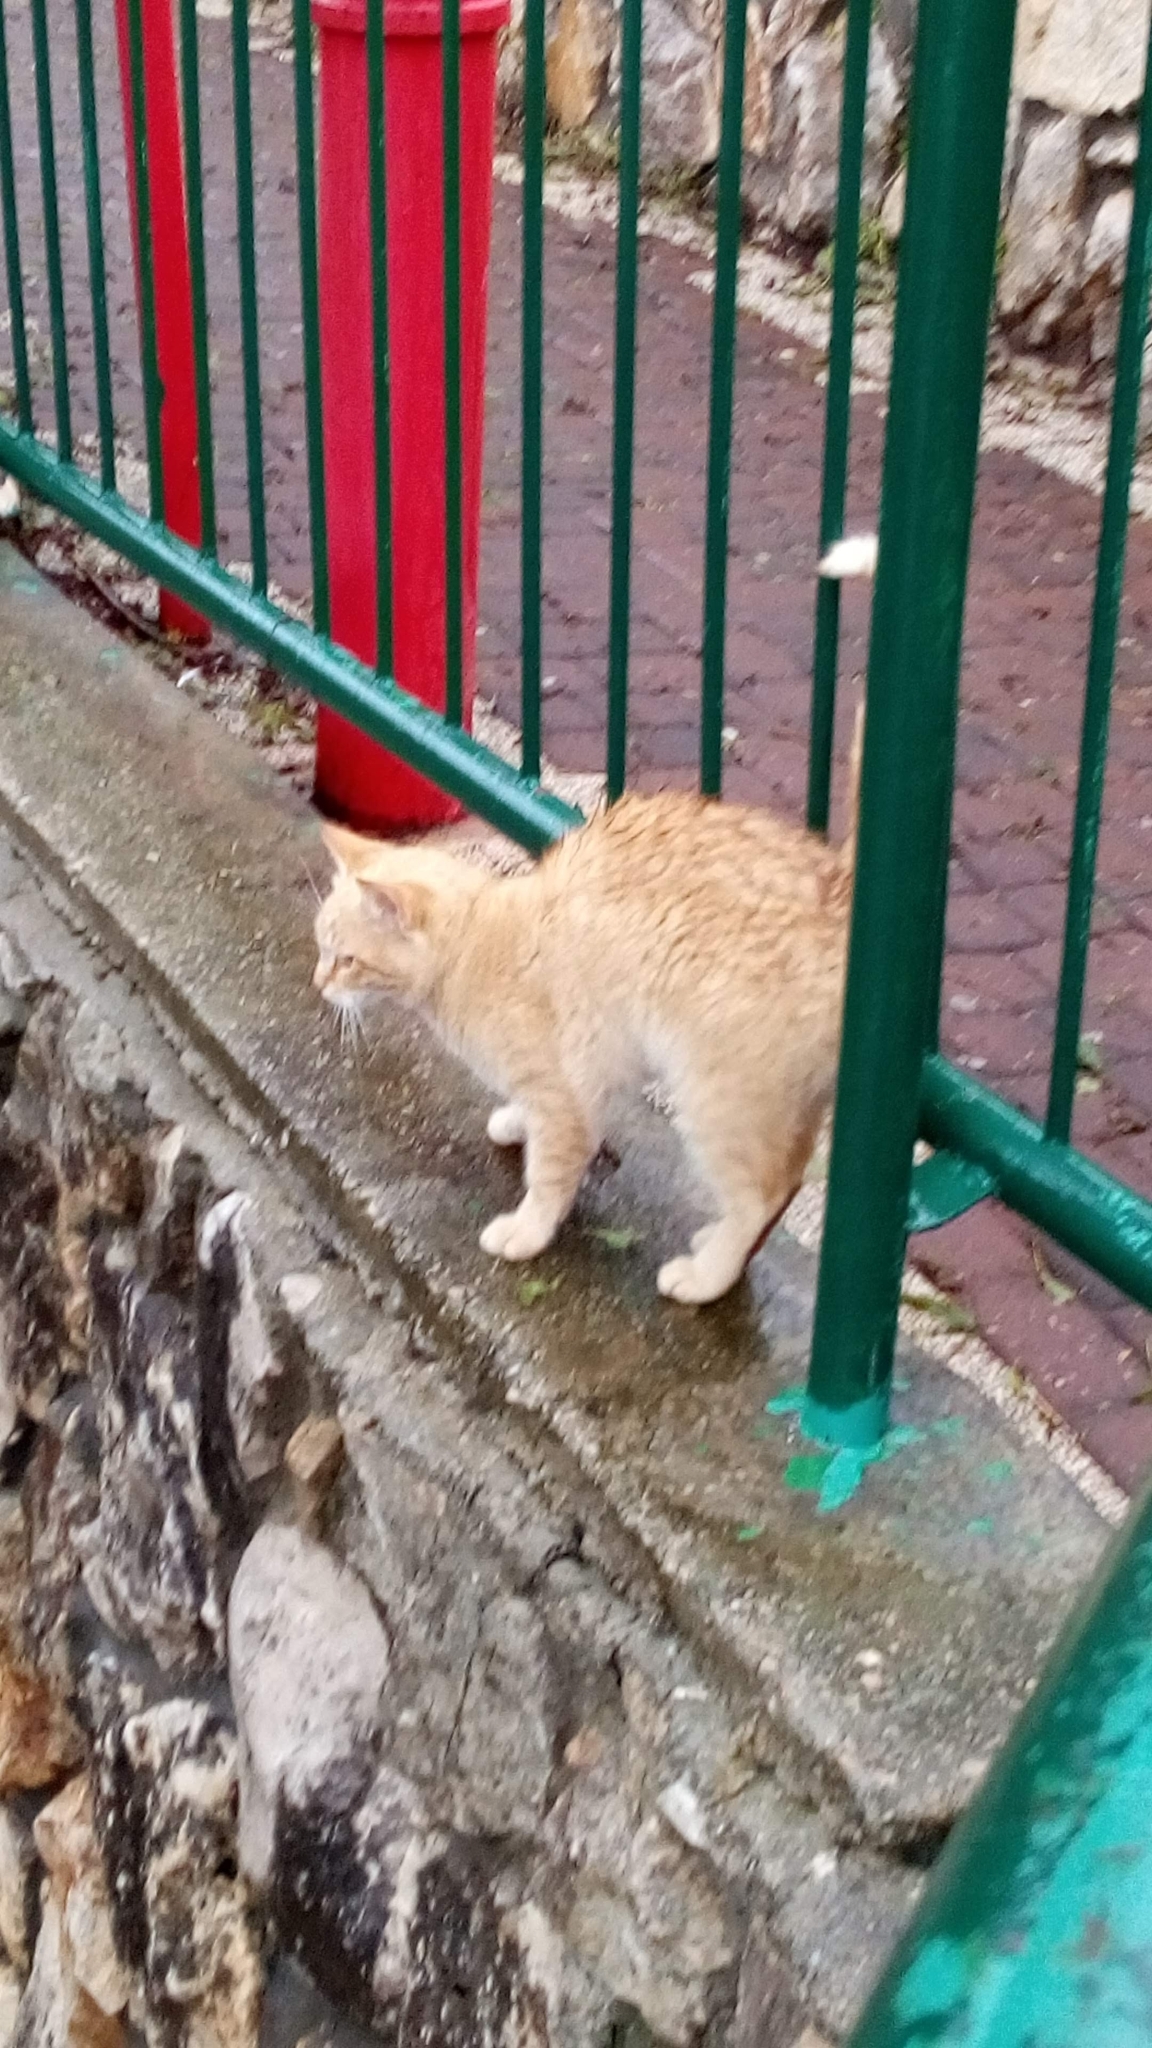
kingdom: Animalia
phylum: Chordata
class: Mammalia
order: Carnivora
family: Felidae
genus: Felis
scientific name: Felis catus
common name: Domestic cat
